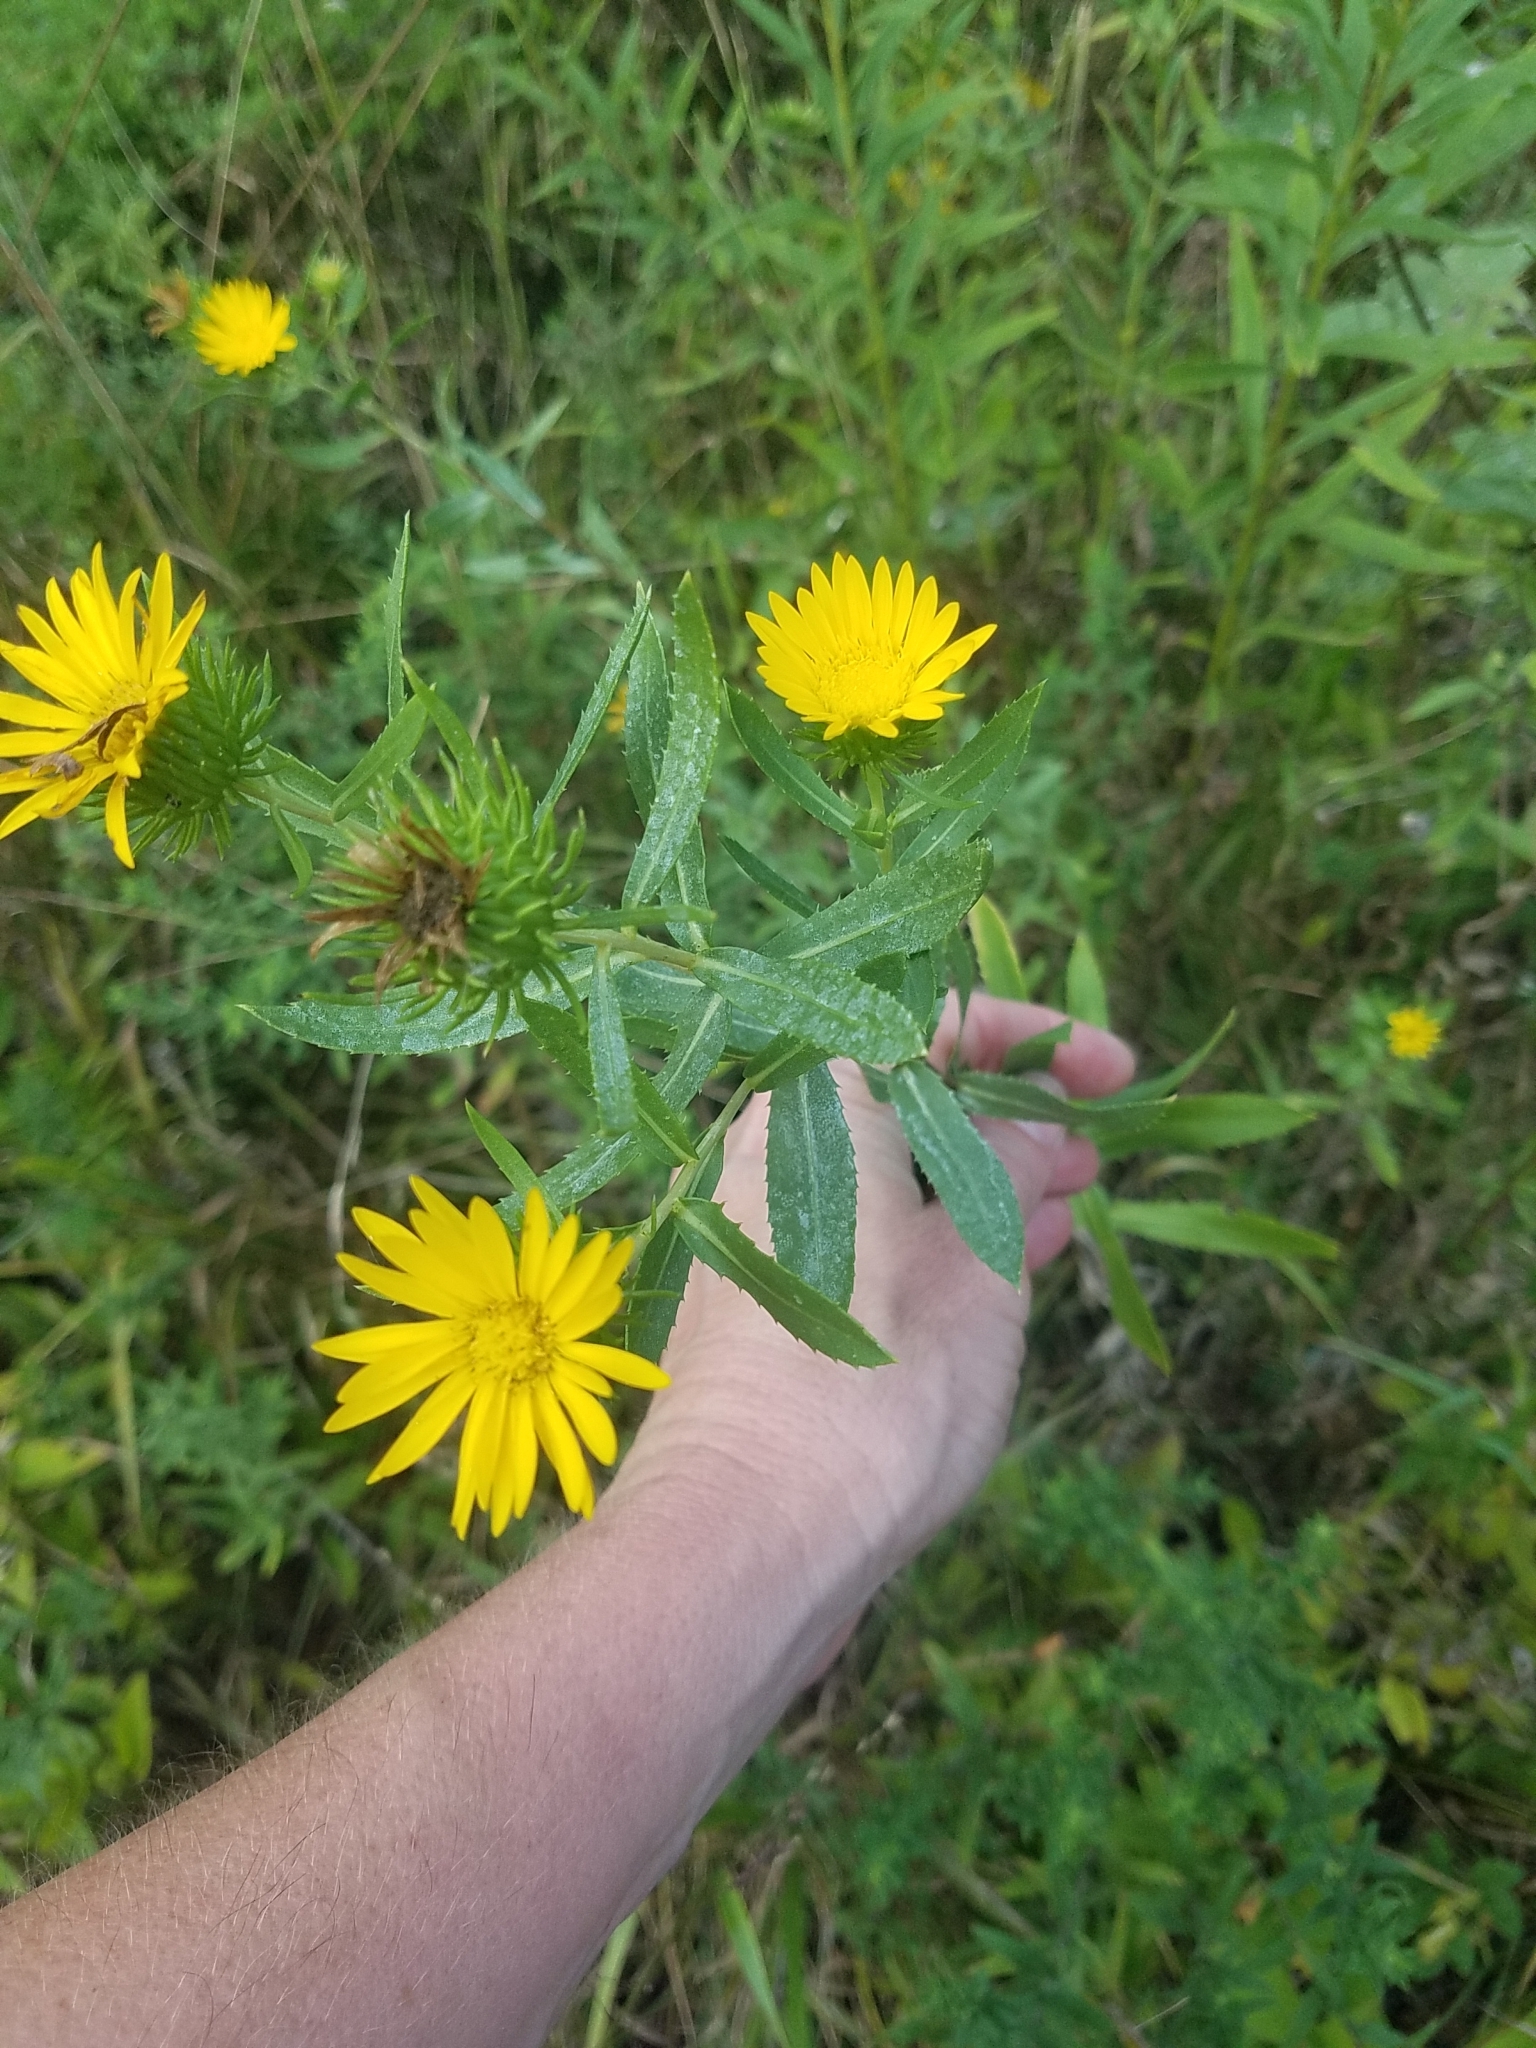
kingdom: Plantae
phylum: Tracheophyta
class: Magnoliopsida
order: Asterales
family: Asteraceae
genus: Grindelia
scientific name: Grindelia lanceolata
